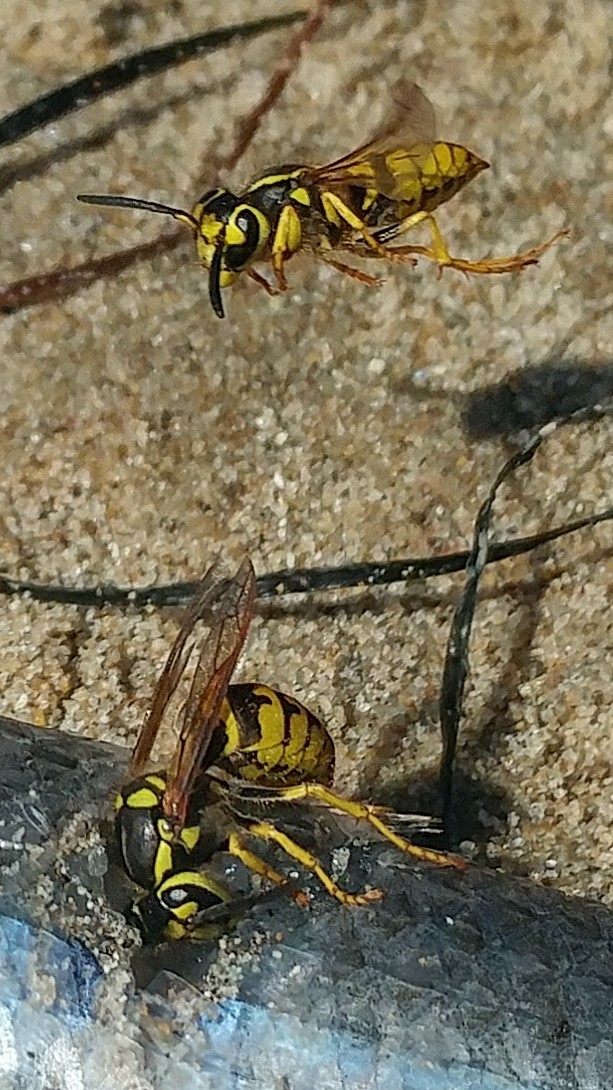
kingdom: Animalia
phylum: Arthropoda
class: Insecta
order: Hymenoptera
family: Vespidae
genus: Vespula
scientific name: Vespula pensylvanica
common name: Western yellowjacket
